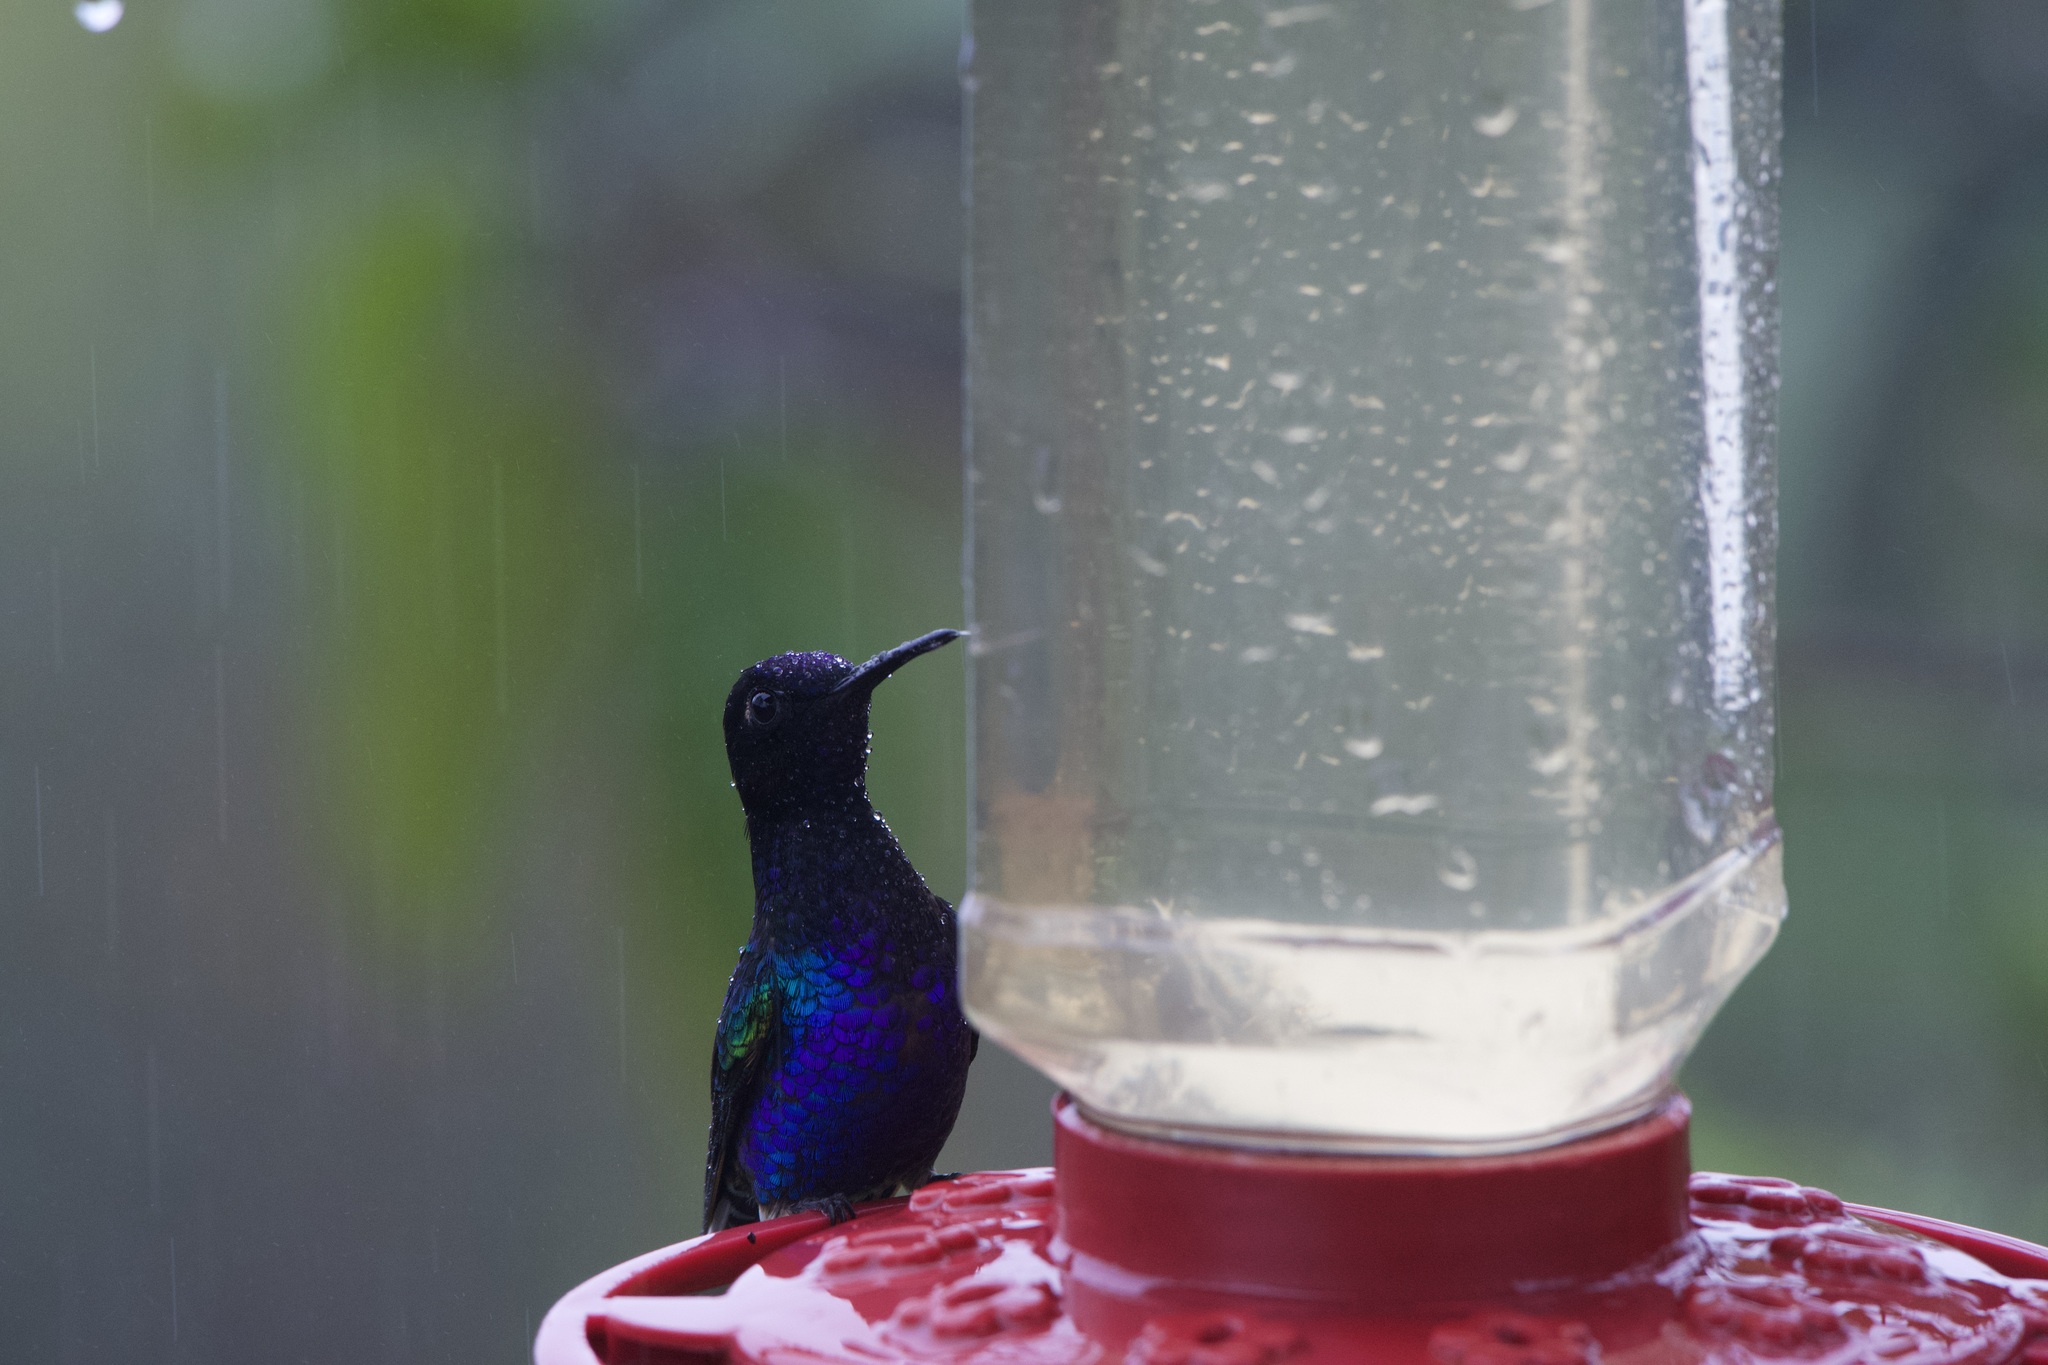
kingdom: Animalia
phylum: Chordata
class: Aves
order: Apodiformes
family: Trochilidae
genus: Boissonneaua
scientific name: Boissonneaua jardini
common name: Velvet-purple coronet
